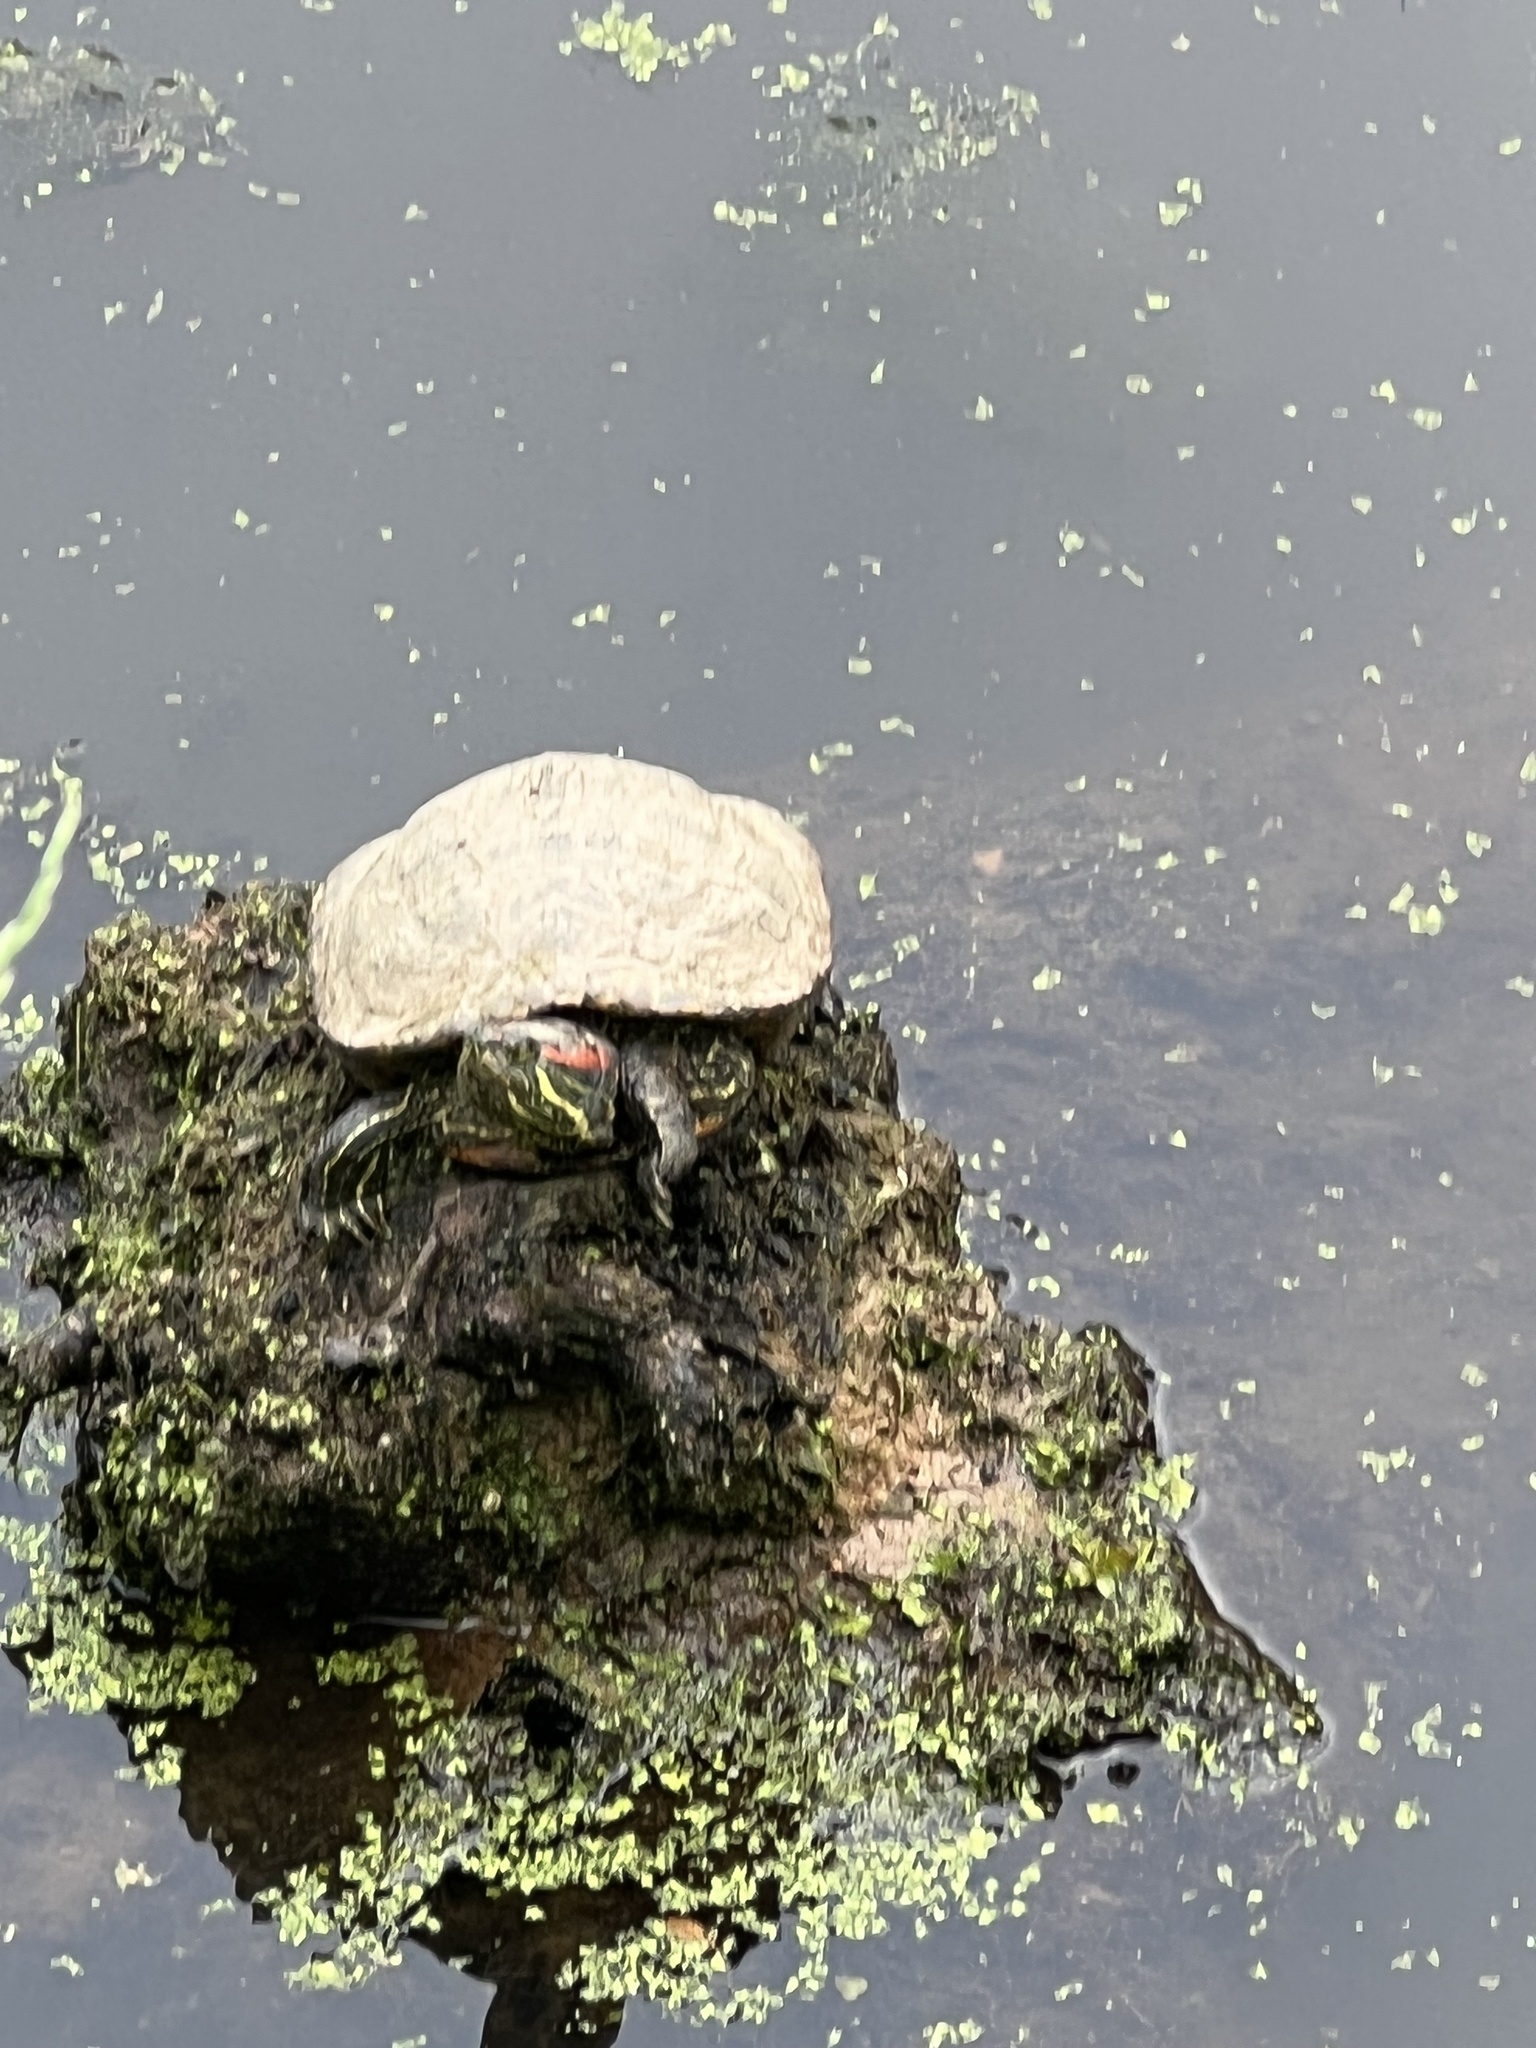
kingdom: Animalia
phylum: Chordata
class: Testudines
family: Emydidae
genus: Trachemys
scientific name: Trachemys scripta
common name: Slider
